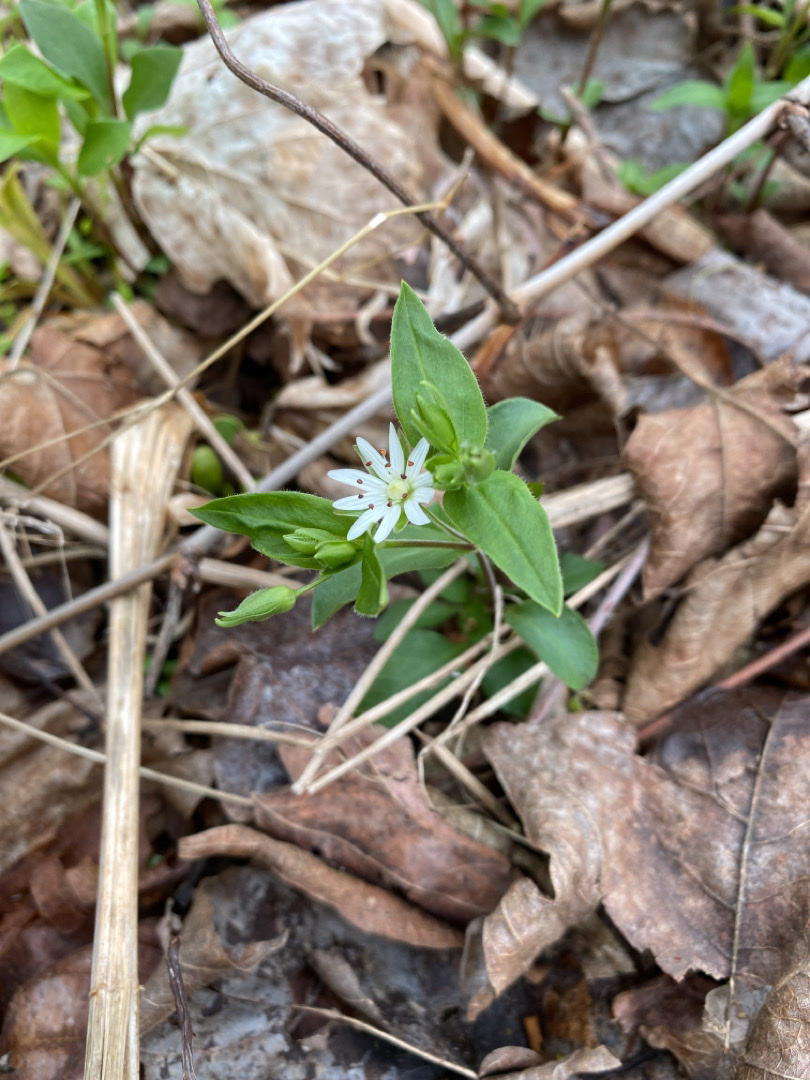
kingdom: Plantae
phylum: Tracheophyta
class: Magnoliopsida
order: Caryophyllales
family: Caryophyllaceae
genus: Stellaria
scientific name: Stellaria pubera
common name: Star chickweed
